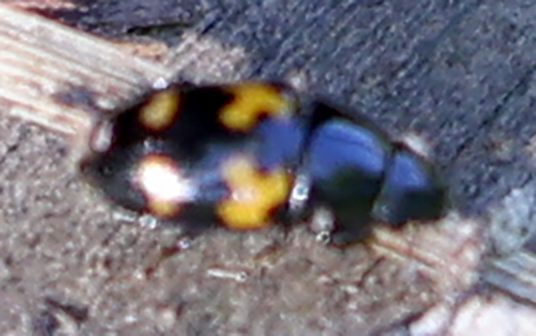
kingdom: Animalia
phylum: Arthropoda
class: Insecta
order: Coleoptera
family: Nitidulidae
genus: Glischrochilus
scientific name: Glischrochilus fasciatus
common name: Picnic beetle
